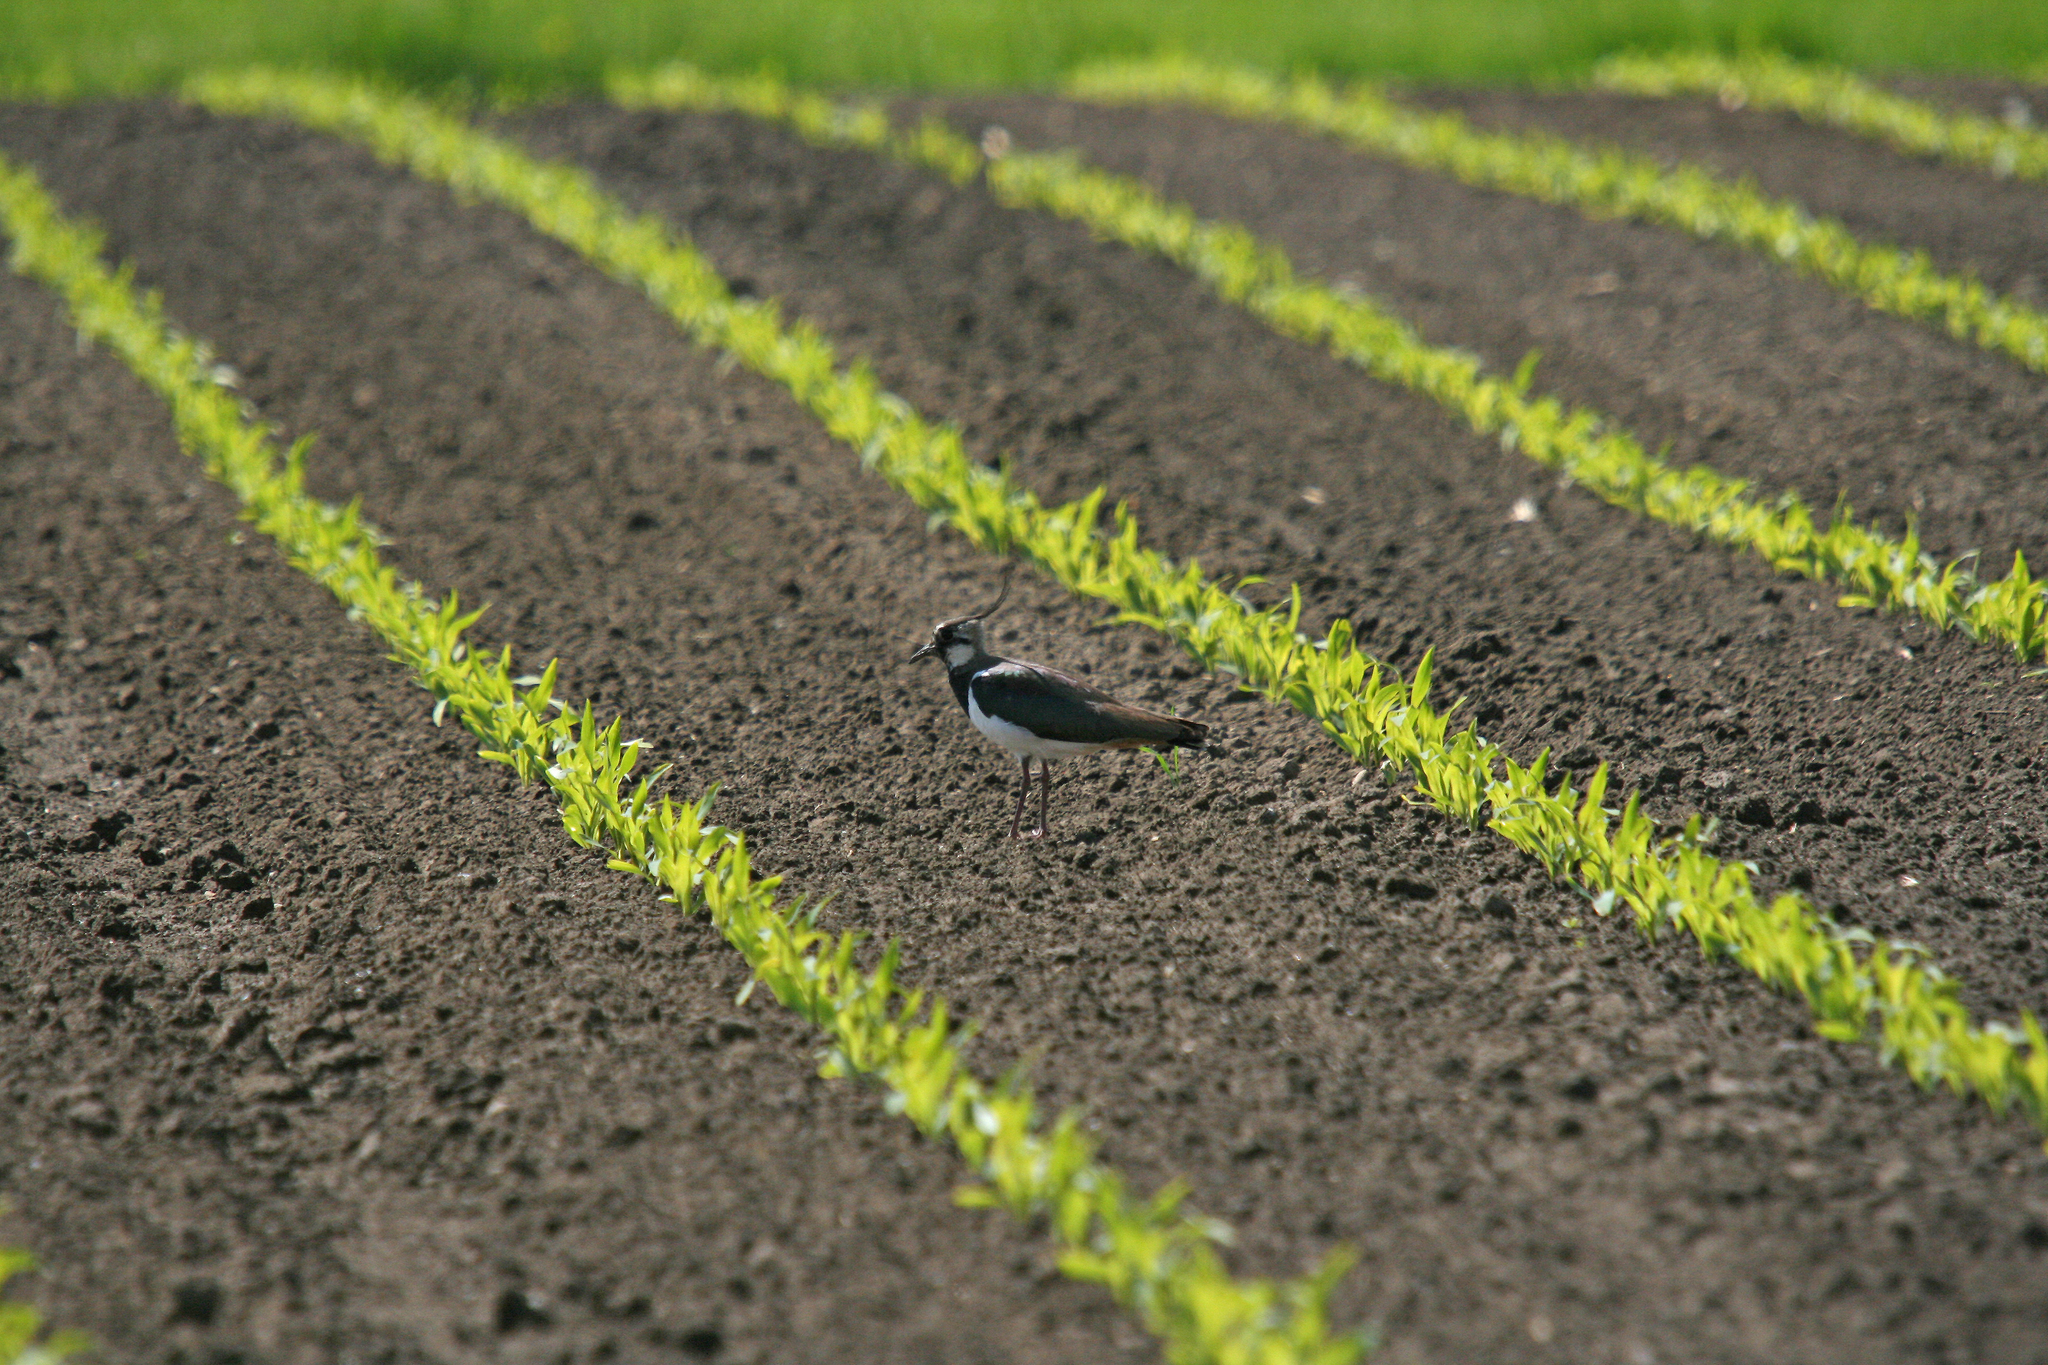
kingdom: Animalia
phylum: Chordata
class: Aves
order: Charadriiformes
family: Charadriidae
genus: Vanellus
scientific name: Vanellus vanellus
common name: Northern lapwing
